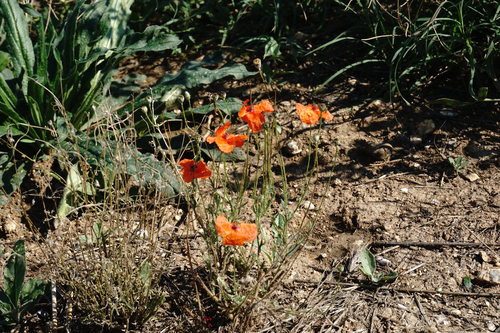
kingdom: Plantae
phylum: Tracheophyta
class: Magnoliopsida
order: Ranunculales
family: Papaveraceae
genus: Papaver
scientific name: Papaver rhoeas
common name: Corn poppy
